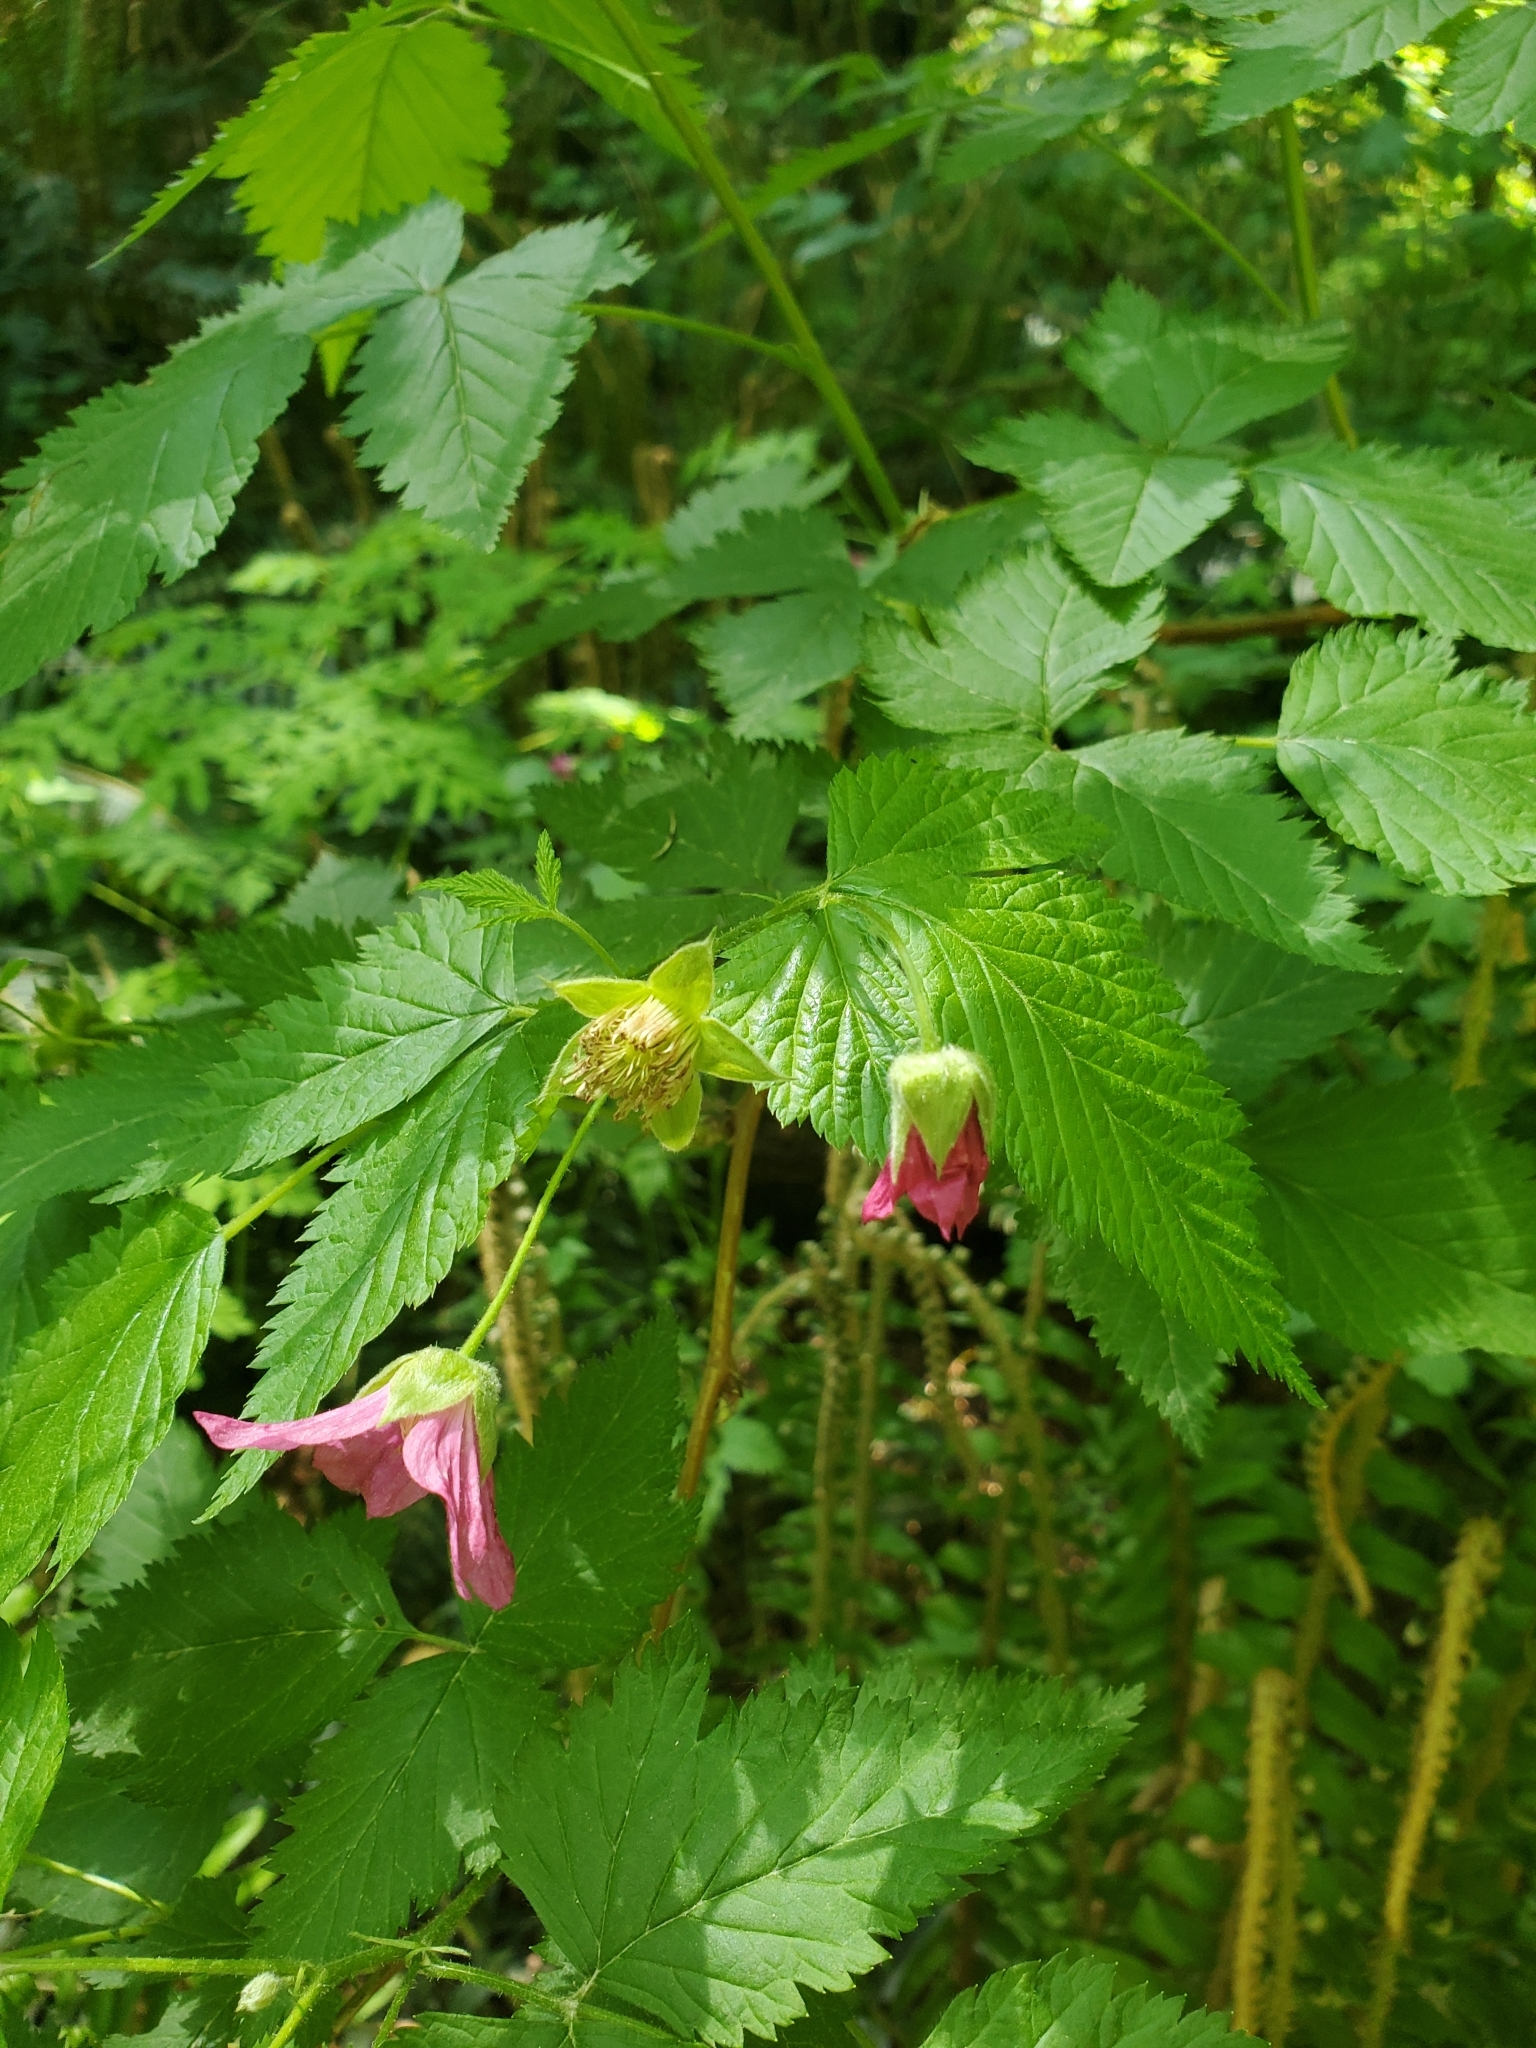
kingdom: Plantae
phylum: Tracheophyta
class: Magnoliopsida
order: Rosales
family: Rosaceae
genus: Rubus
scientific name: Rubus spectabilis
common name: Salmonberry
